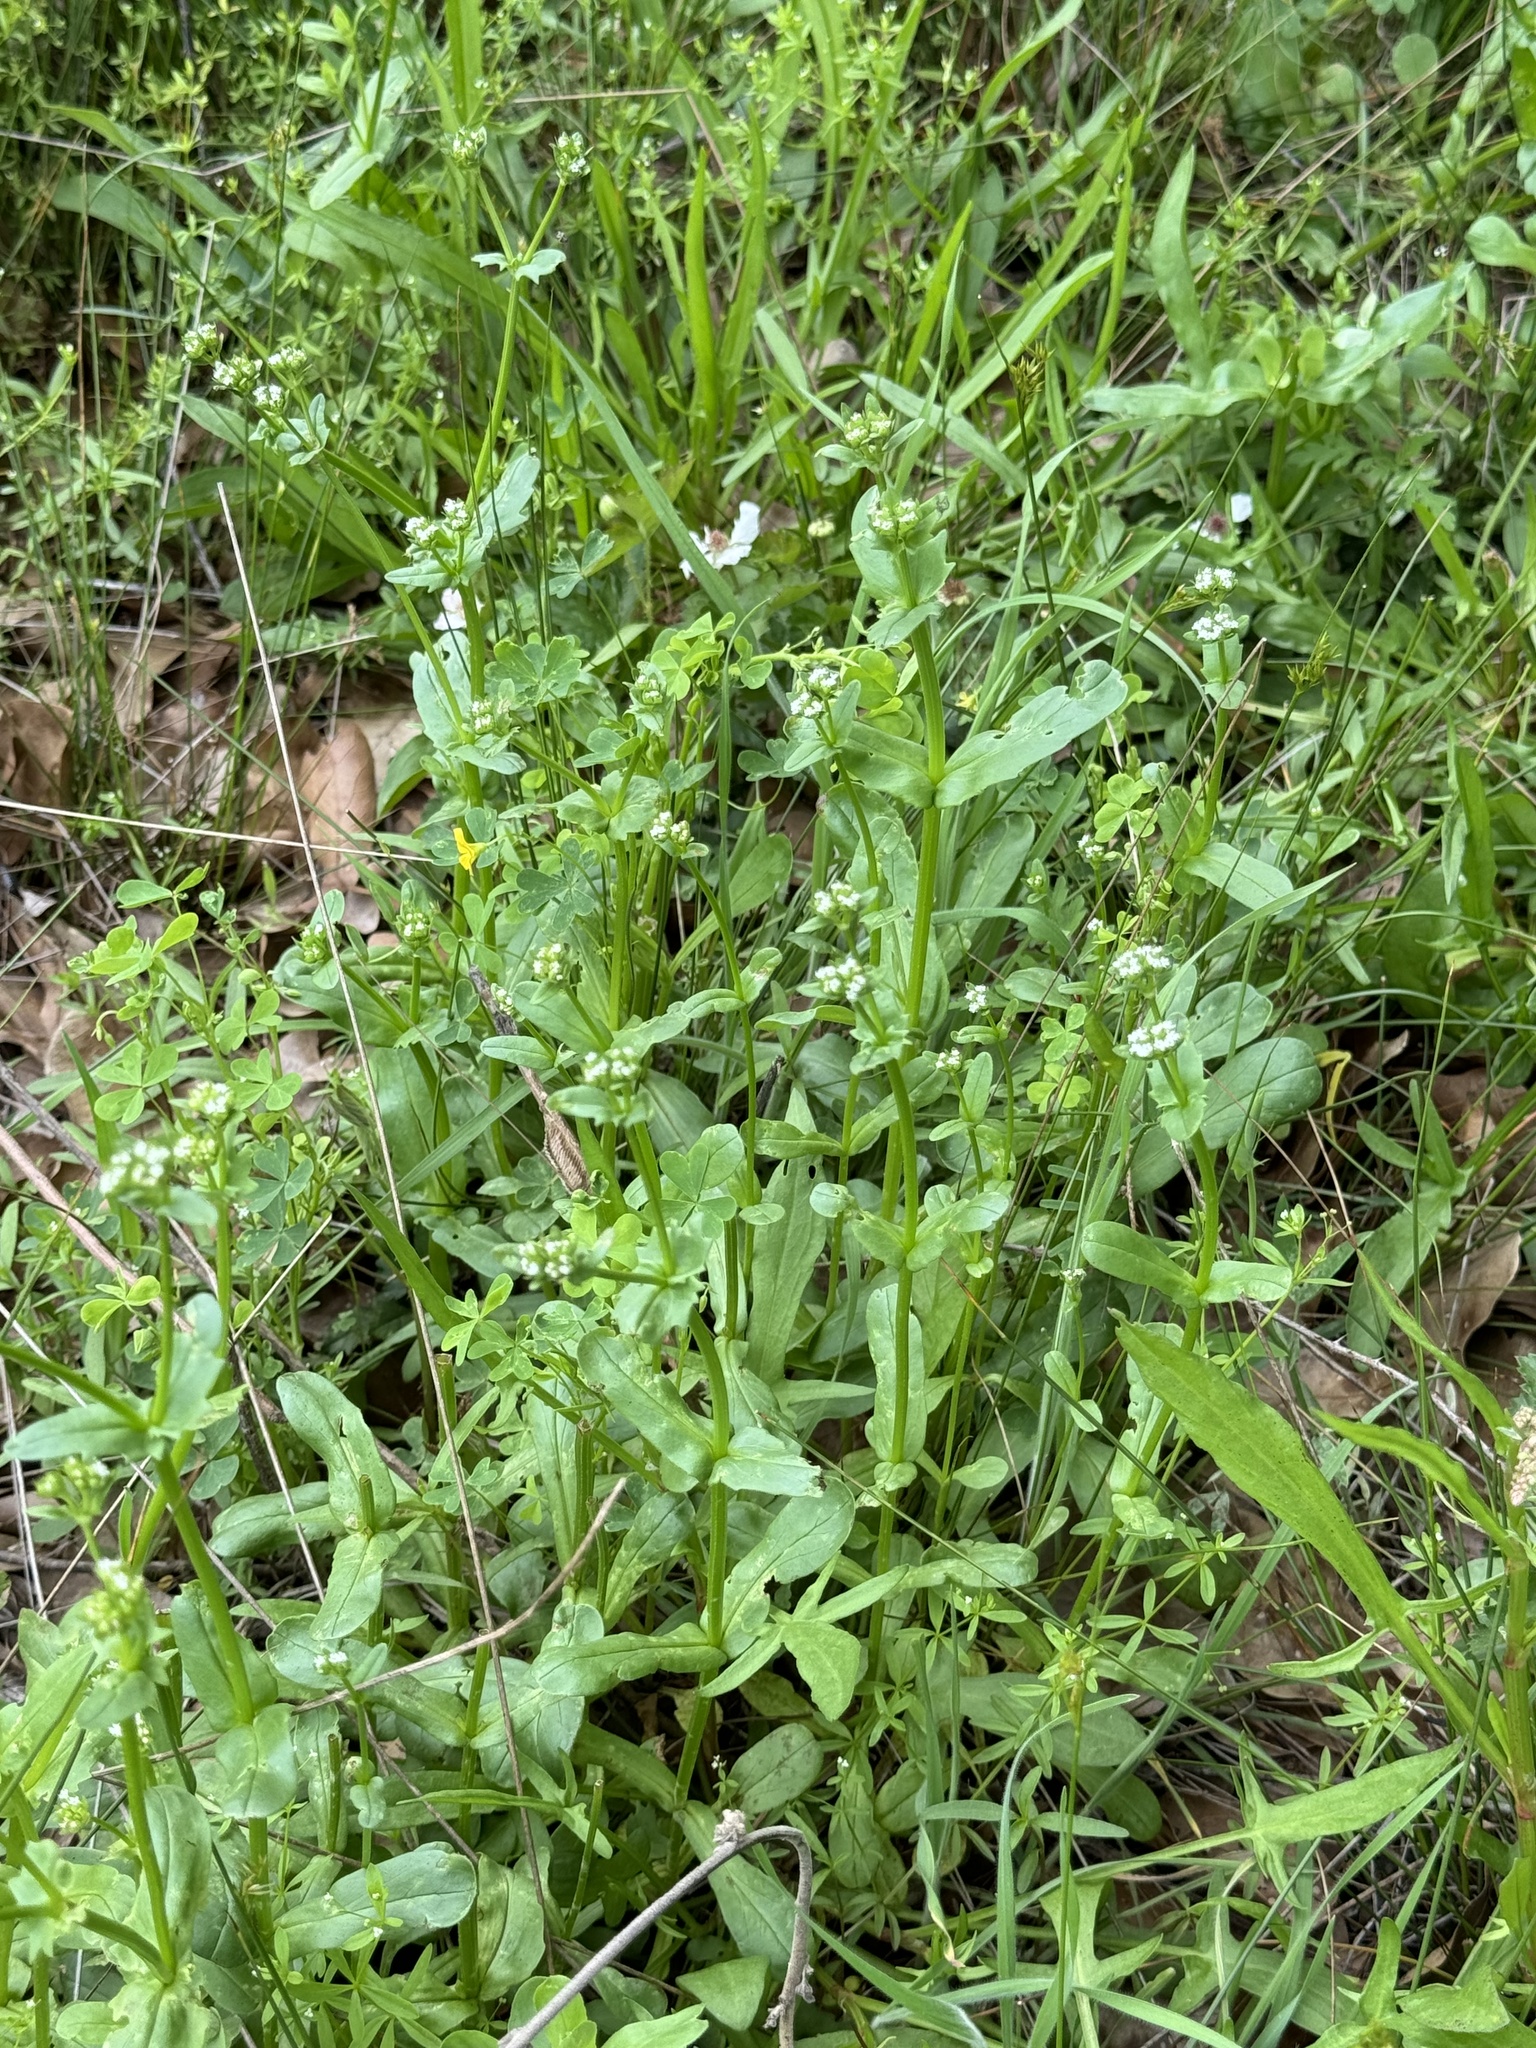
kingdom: Plantae
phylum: Tracheophyta
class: Magnoliopsida
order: Dipsacales
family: Caprifoliaceae
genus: Valerianella
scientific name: Valerianella radiata
